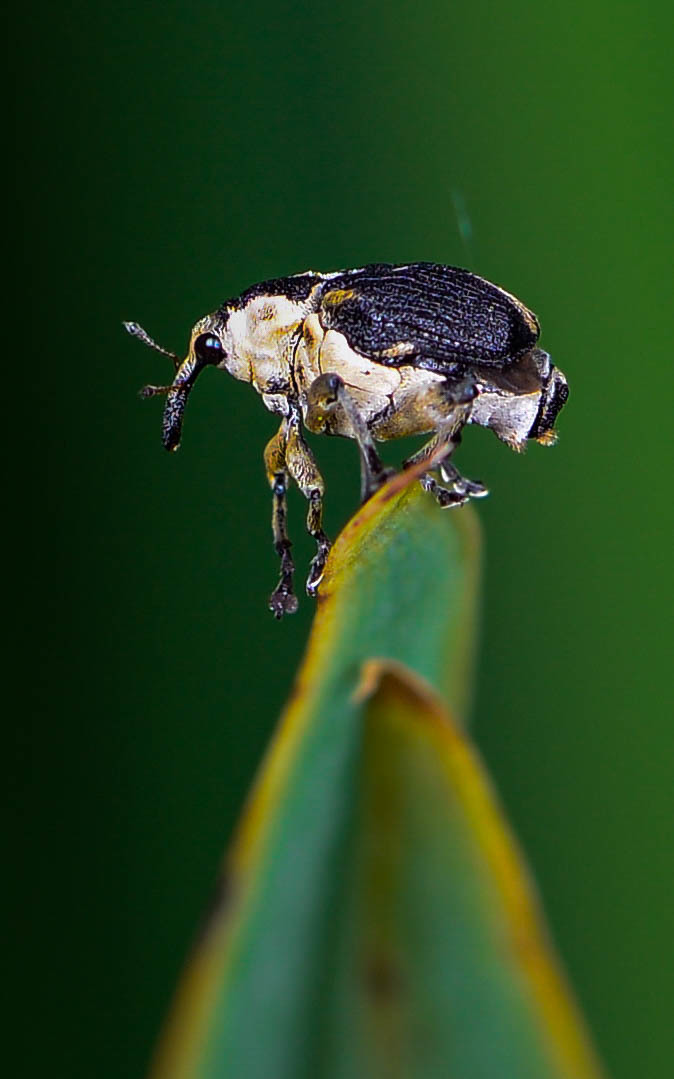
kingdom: Animalia
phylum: Arthropoda
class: Insecta
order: Coleoptera
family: Curculionidae
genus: Mononychus
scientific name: Mononychus vulpeculus
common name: Iris weevil
